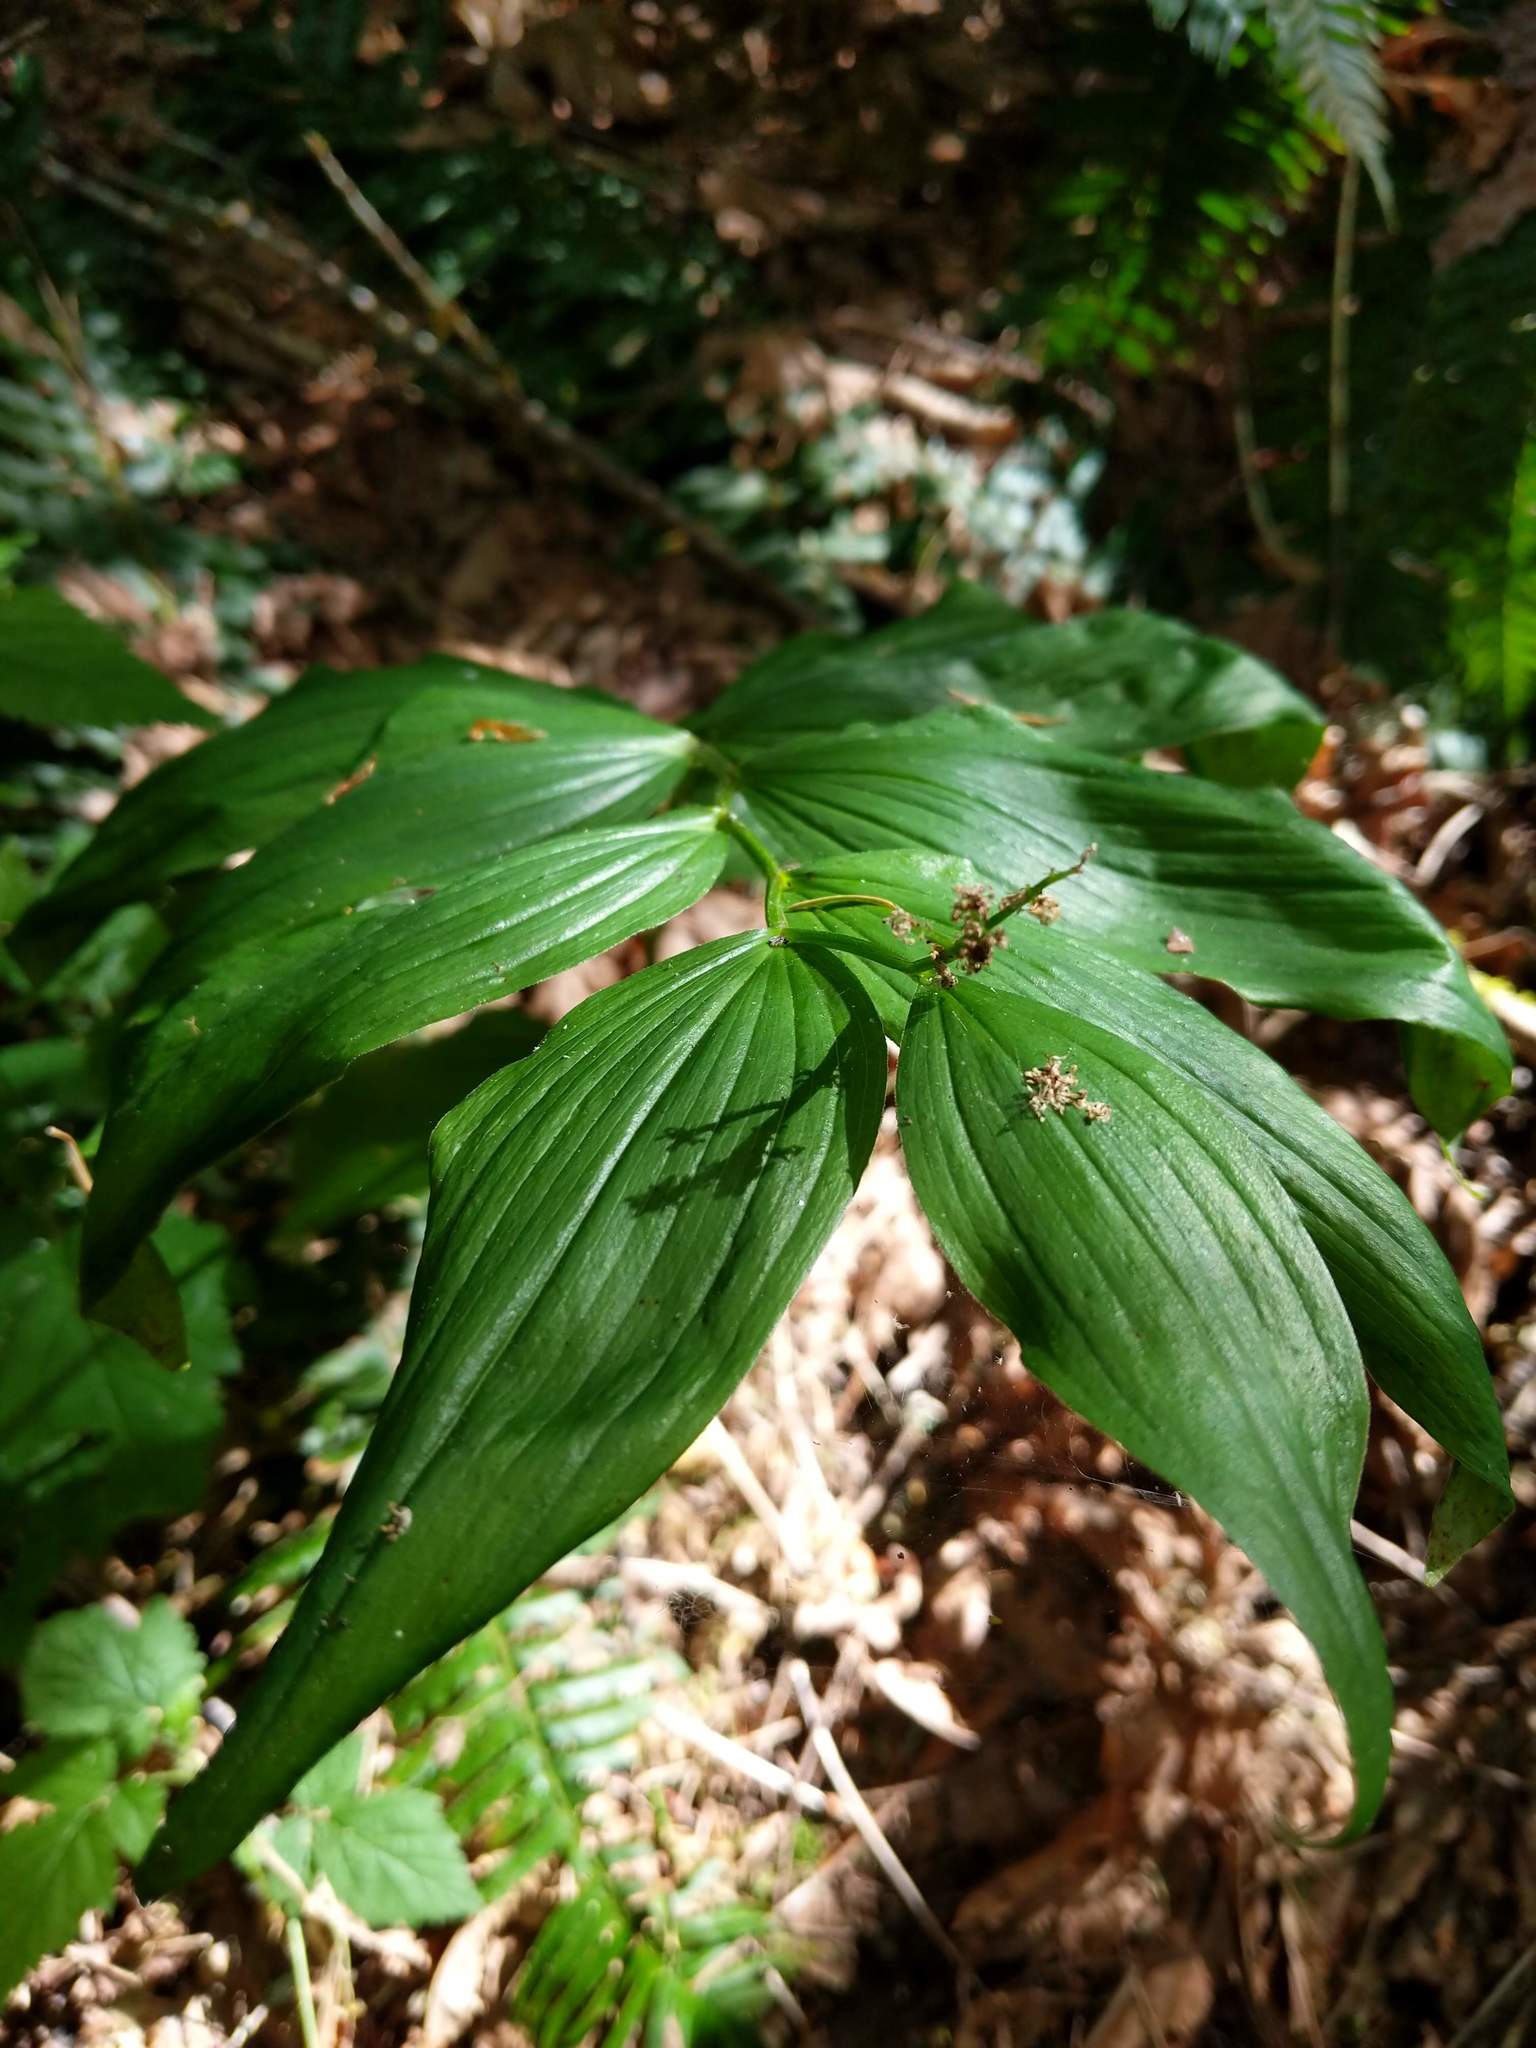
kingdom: Plantae
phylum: Tracheophyta
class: Liliopsida
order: Asparagales
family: Asparagaceae
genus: Maianthemum
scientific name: Maianthemum racemosum
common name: False spikenard
